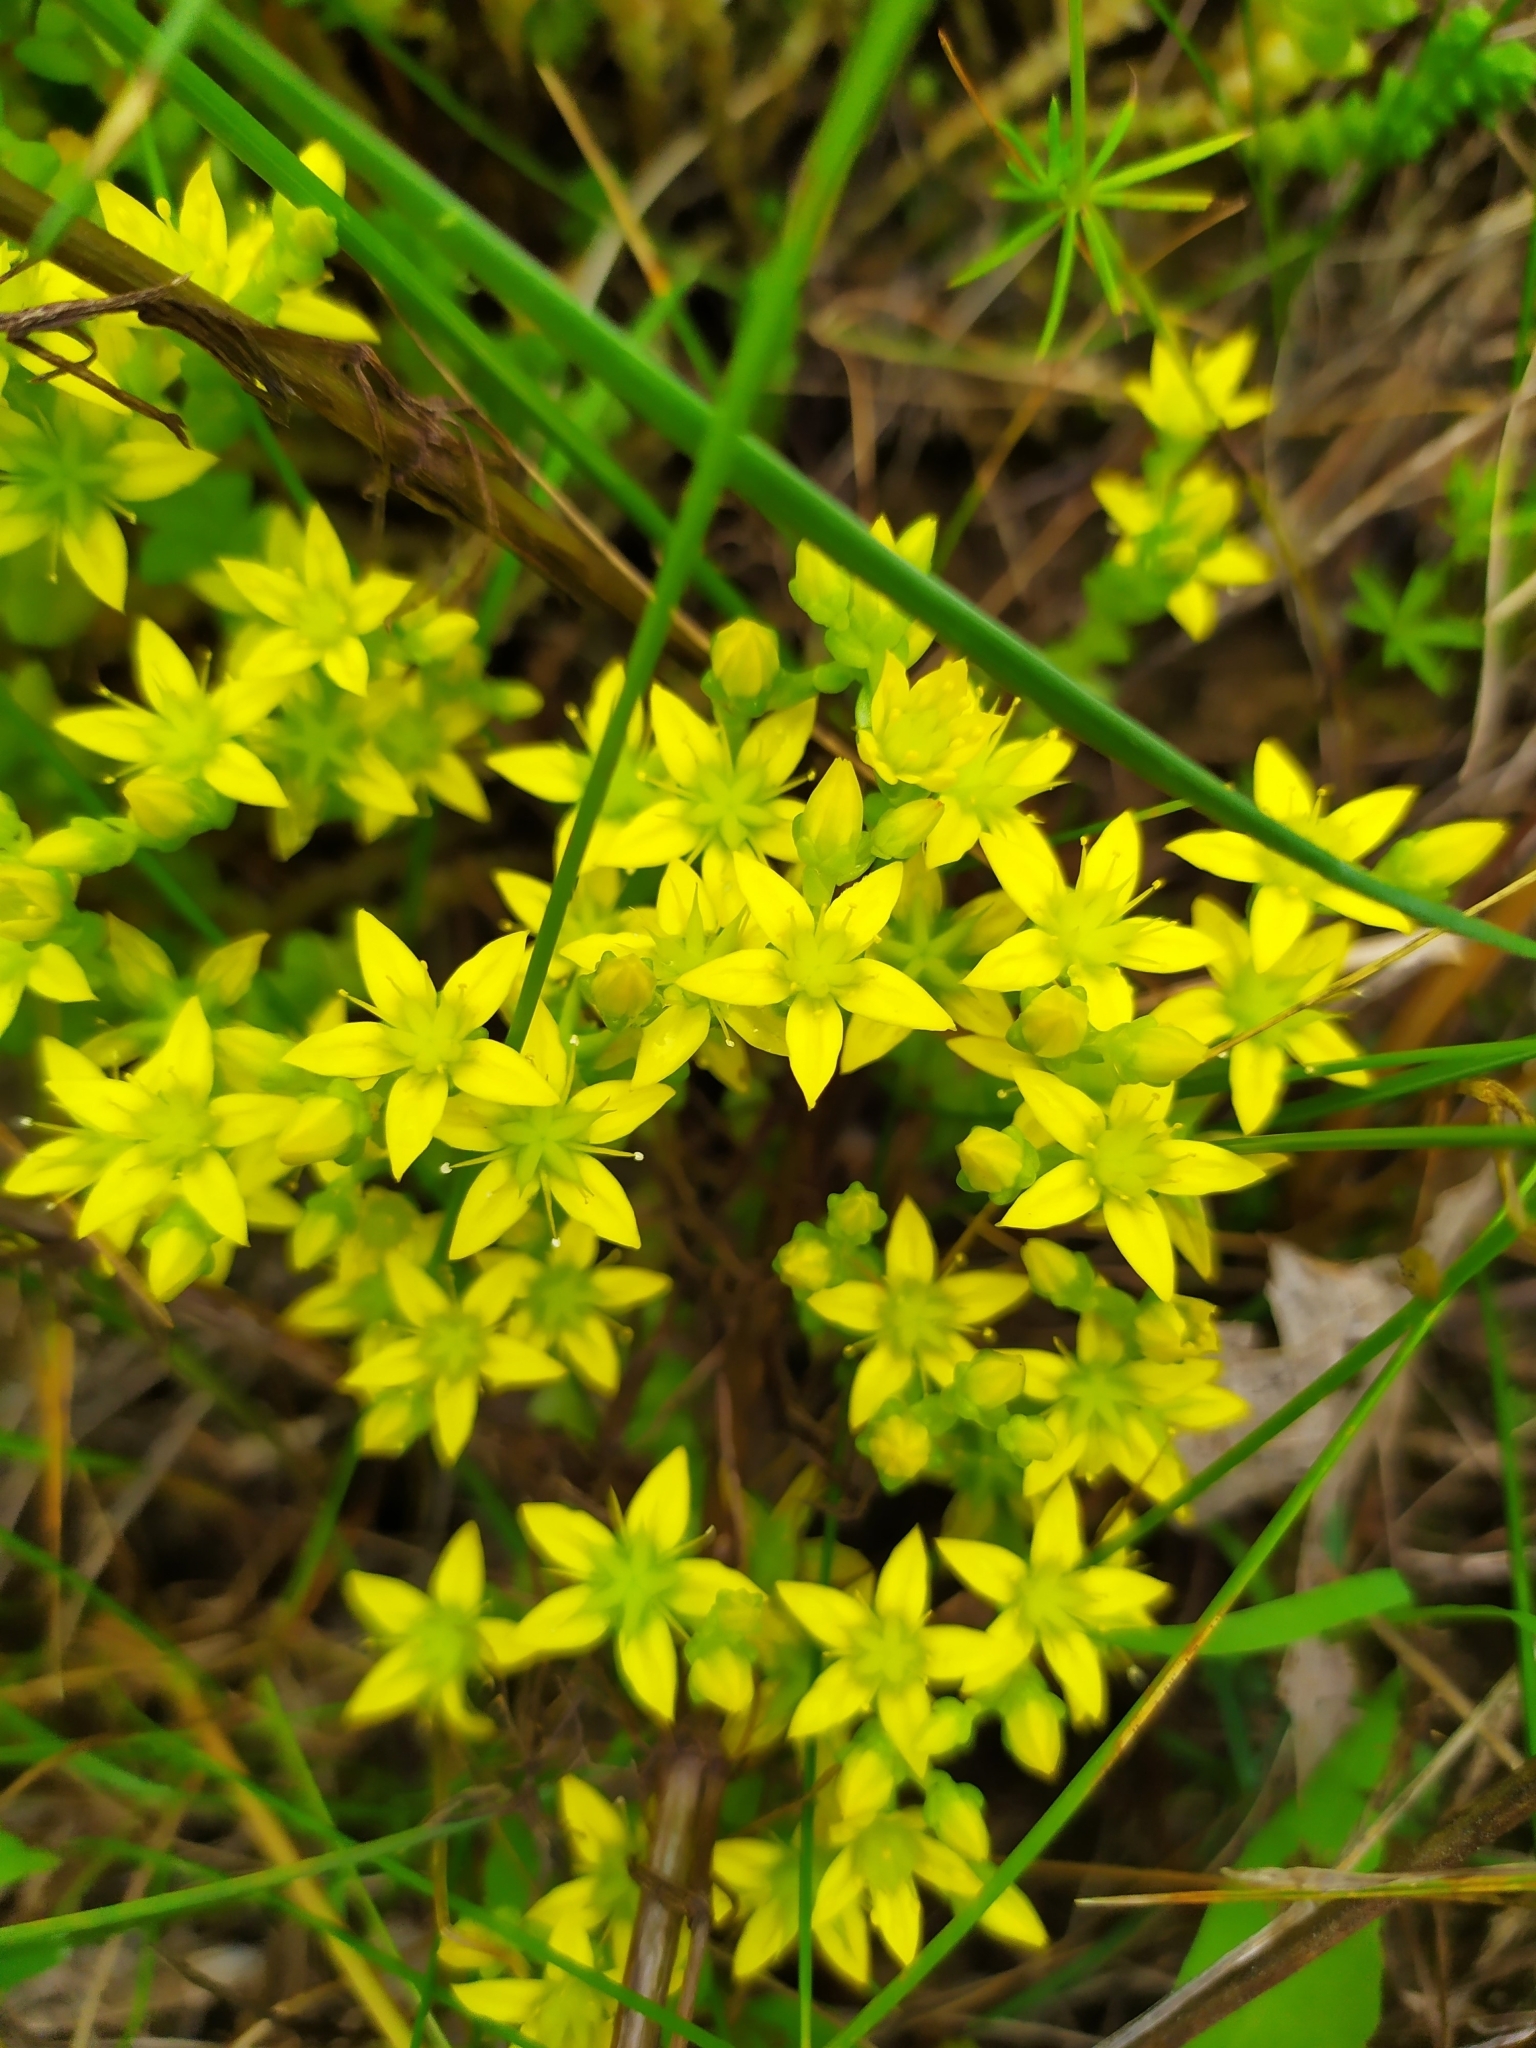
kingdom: Plantae
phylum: Tracheophyta
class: Magnoliopsida
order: Saxifragales
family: Crassulaceae
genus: Sedum
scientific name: Sedum acre
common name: Biting stonecrop
